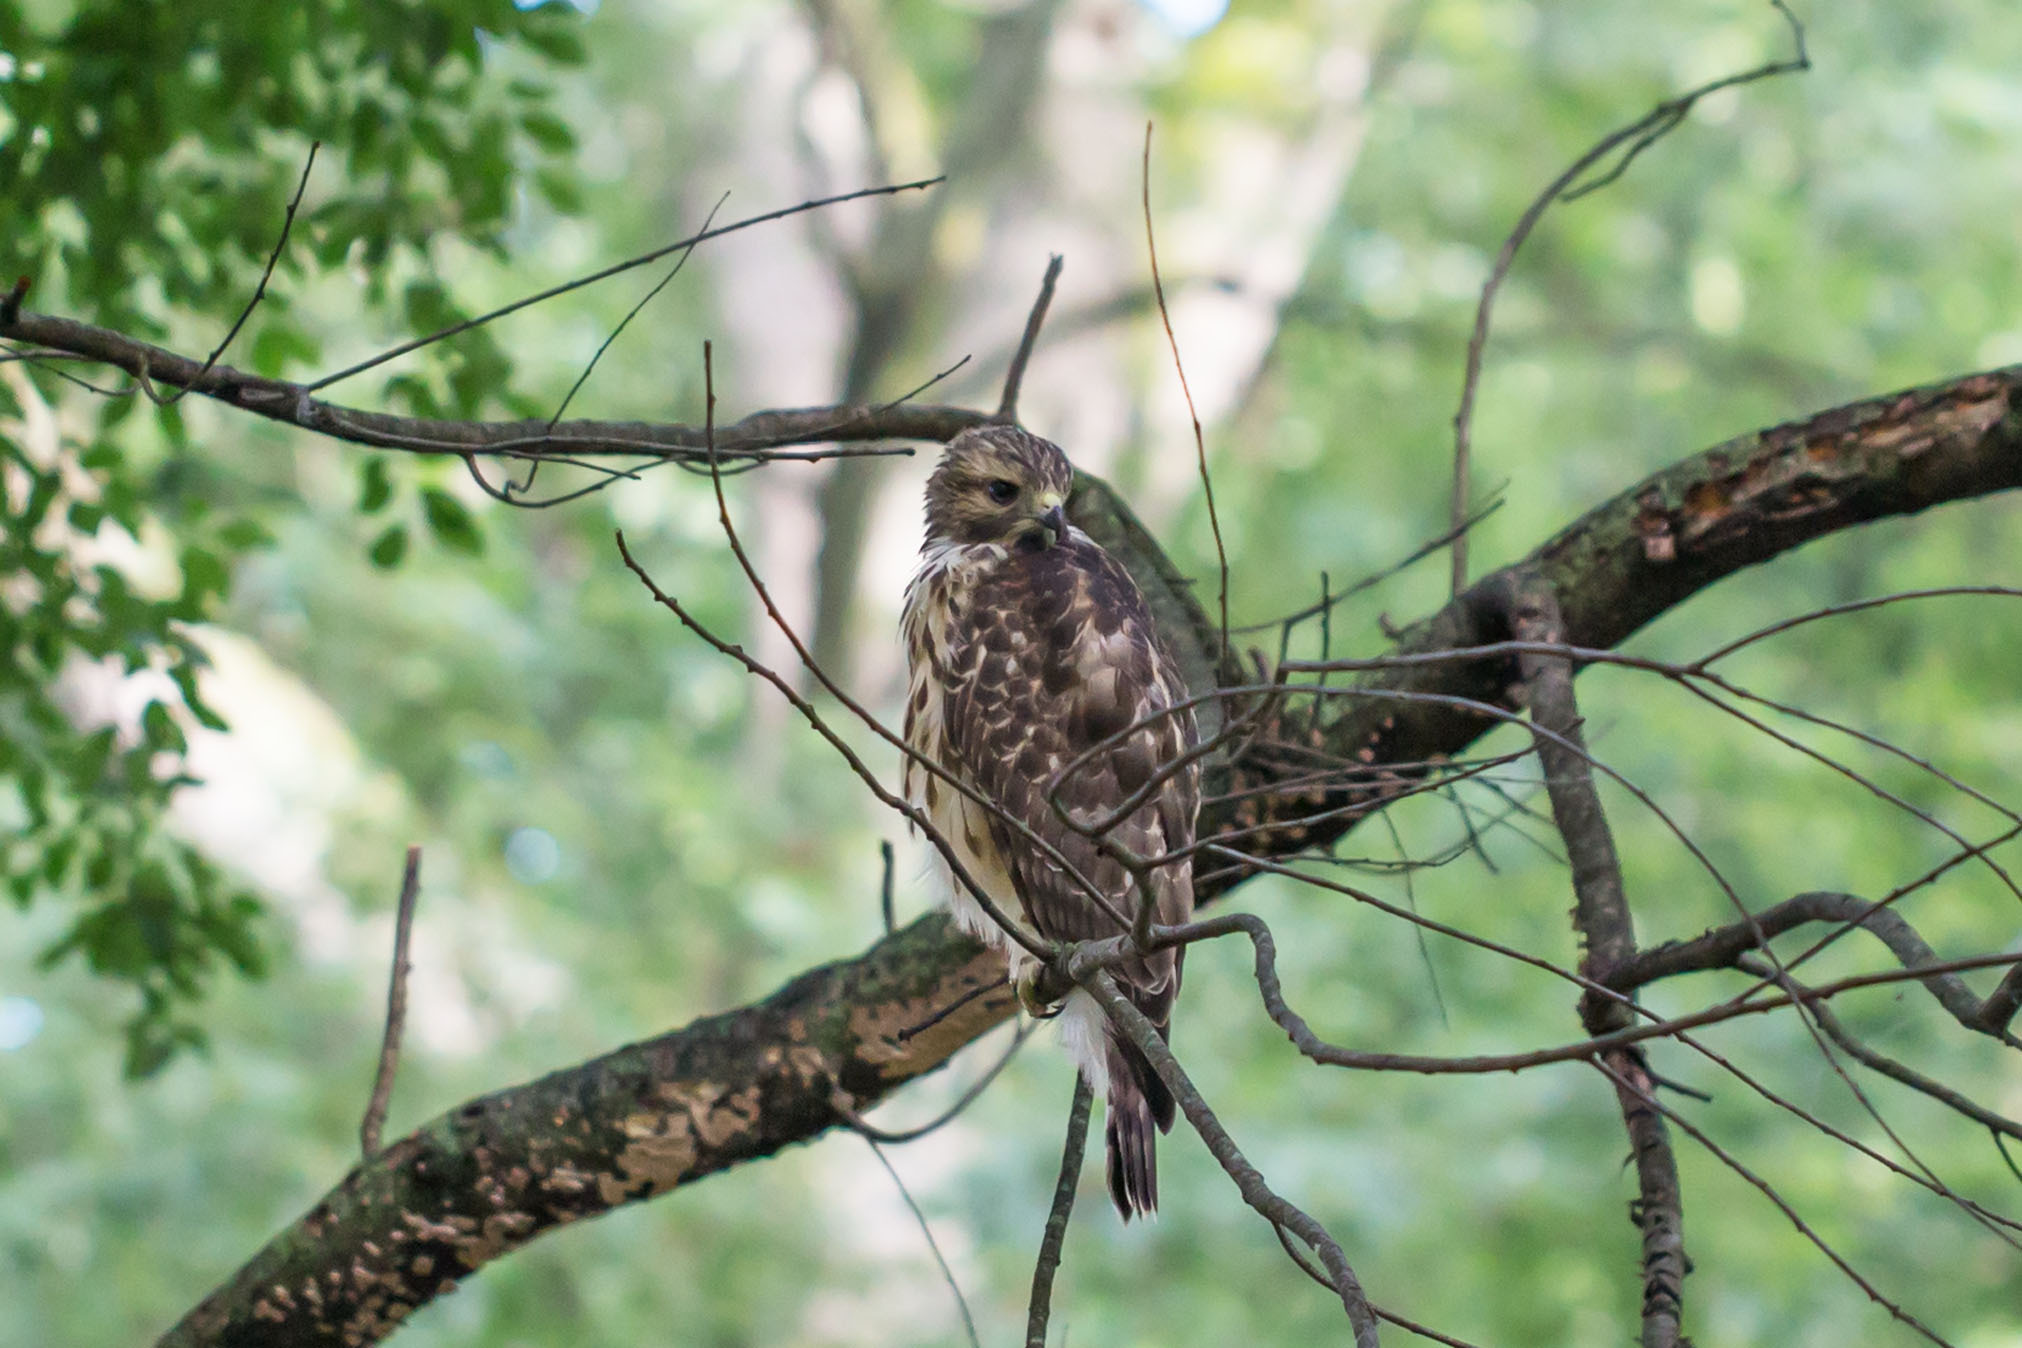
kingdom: Animalia
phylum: Chordata
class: Aves
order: Accipitriformes
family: Accipitridae
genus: Buteo
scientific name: Buteo lineatus
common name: Red-shouldered hawk
